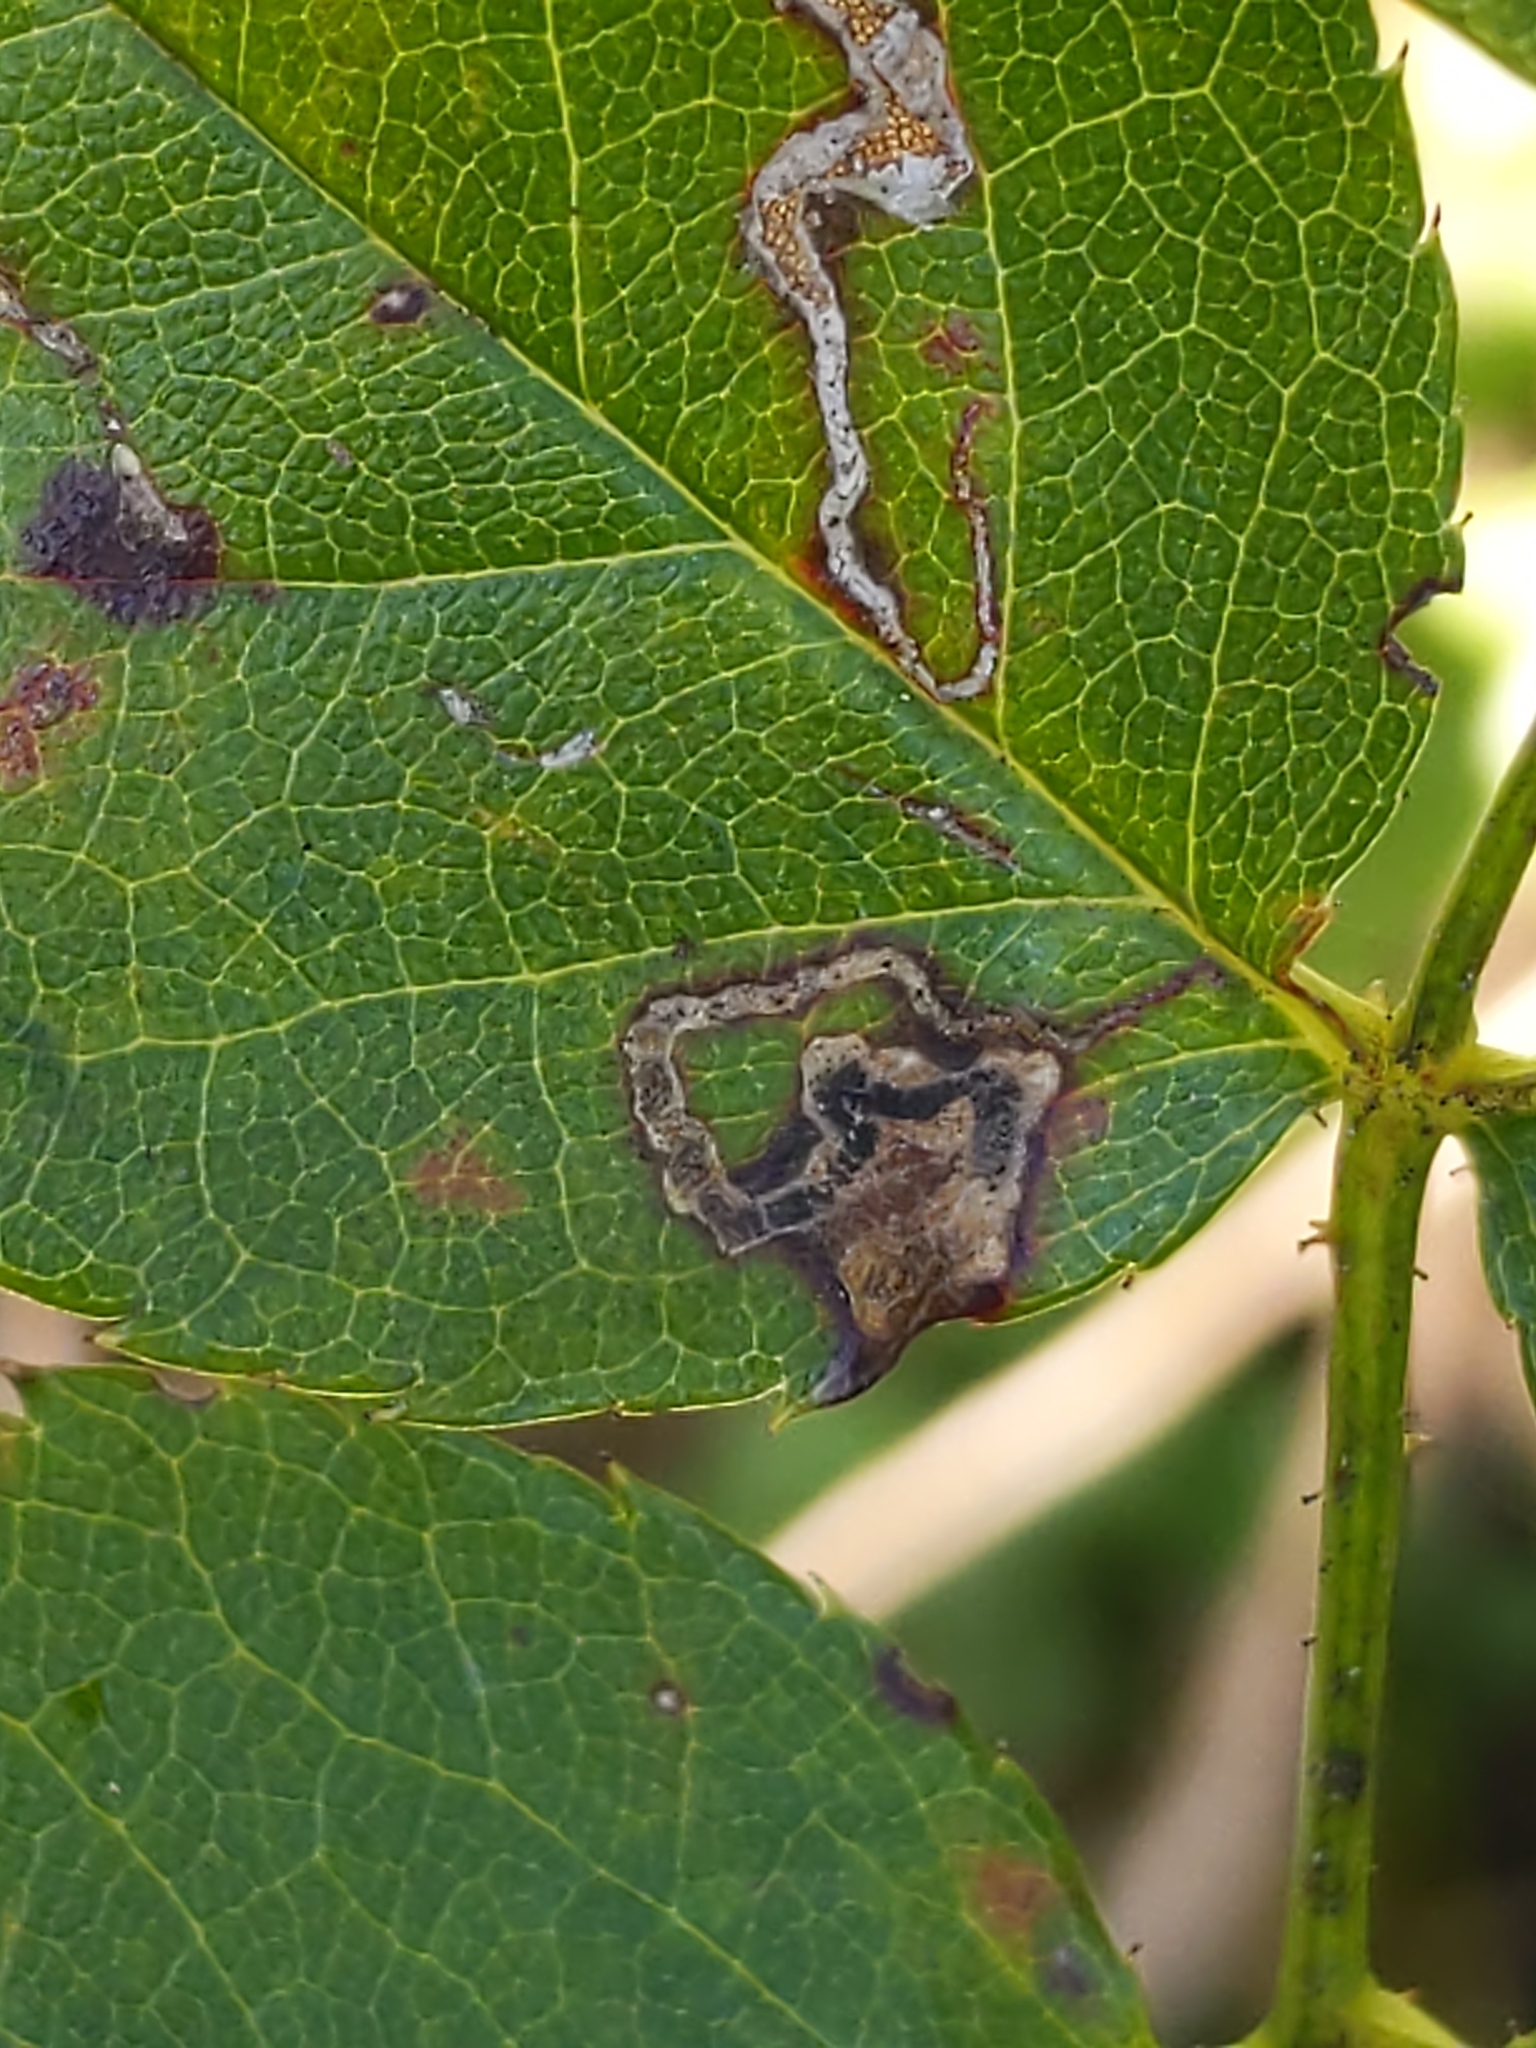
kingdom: Animalia
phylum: Arthropoda
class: Insecta
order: Lepidoptera
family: Nepticulidae
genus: Stigmella
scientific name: Stigmella
